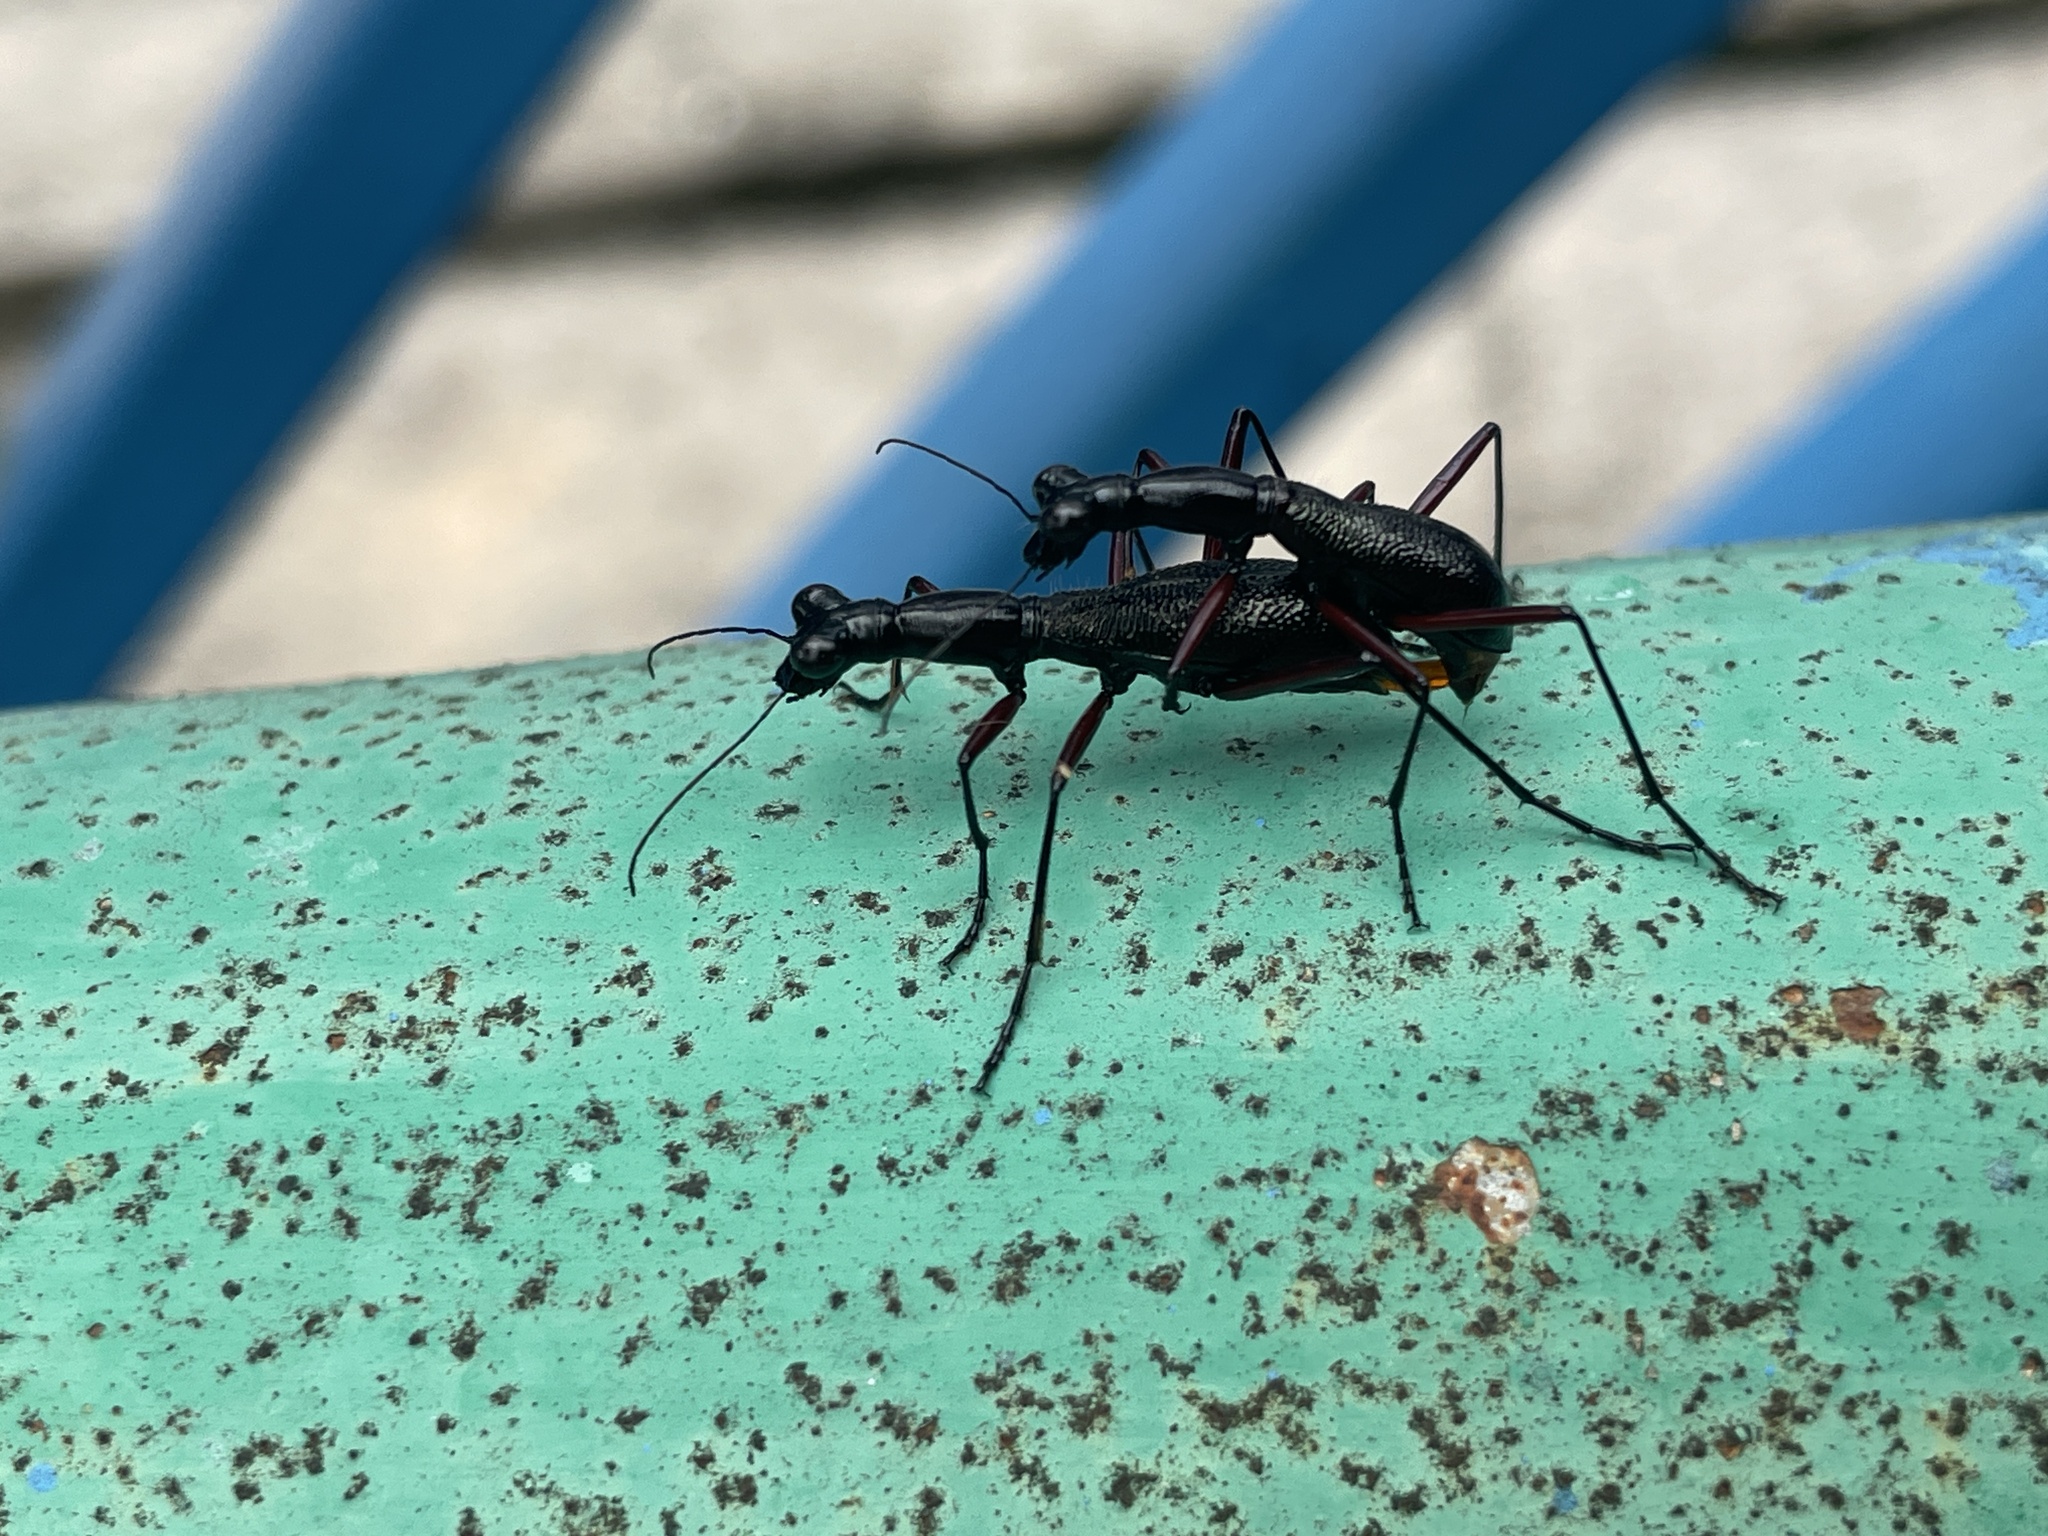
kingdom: Animalia
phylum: Arthropoda
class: Insecta
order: Coleoptera
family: Carabidae
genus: Tricondyla
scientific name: Tricondyla pulchripes
